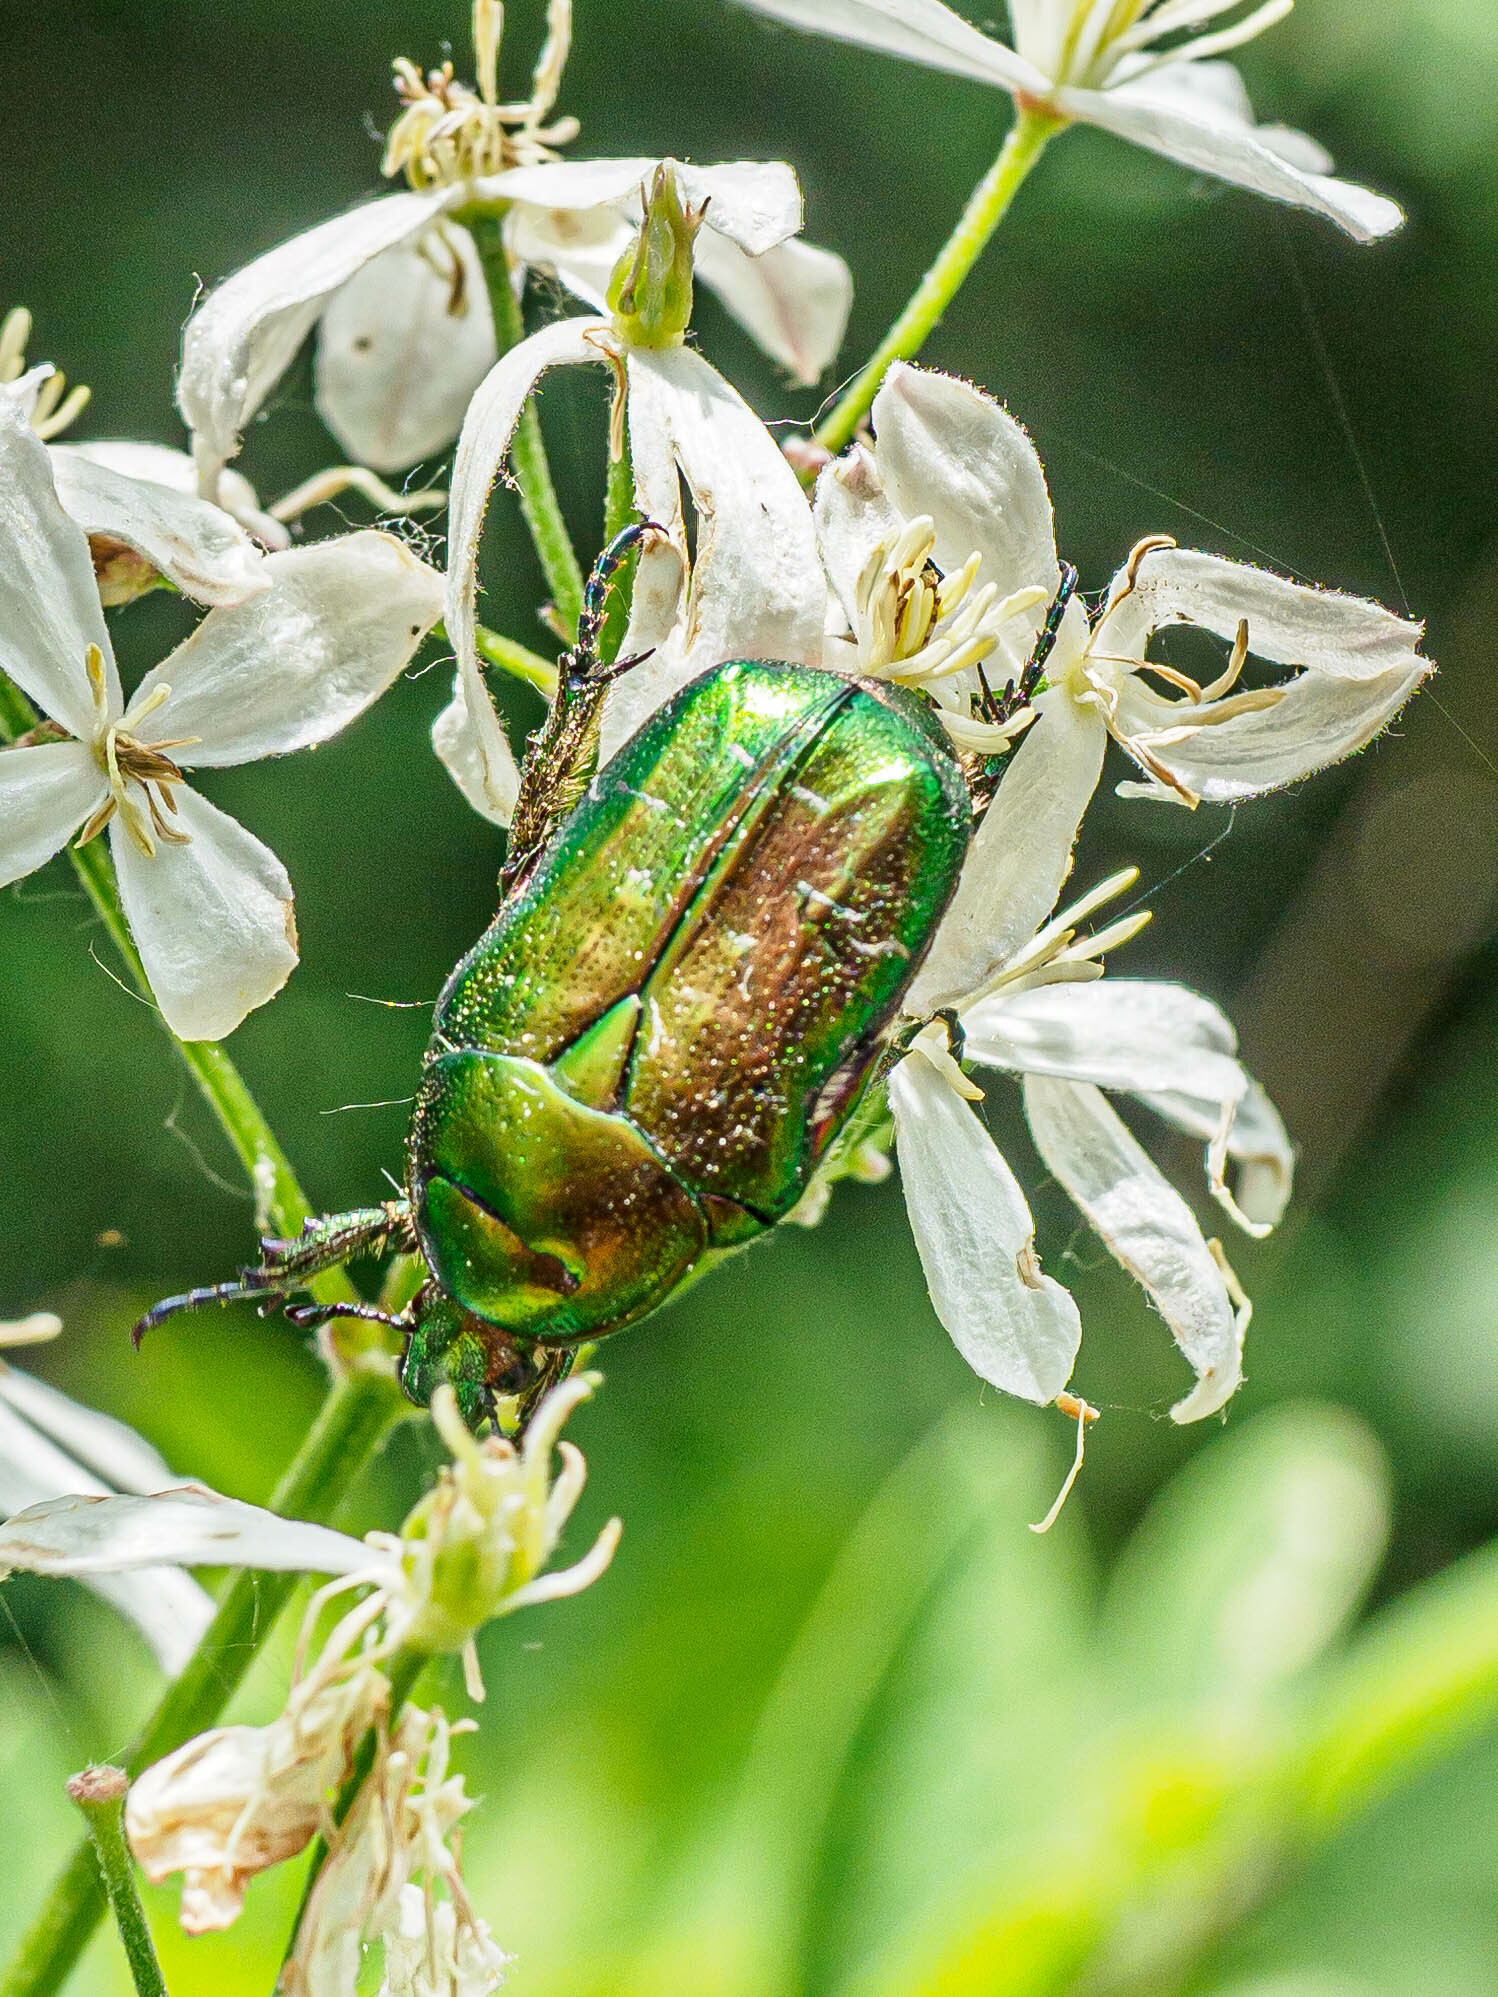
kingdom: Animalia
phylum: Arthropoda
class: Insecta
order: Coleoptera
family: Scarabaeidae
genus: Cetonia
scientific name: Cetonia aurata
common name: Rose chafer
